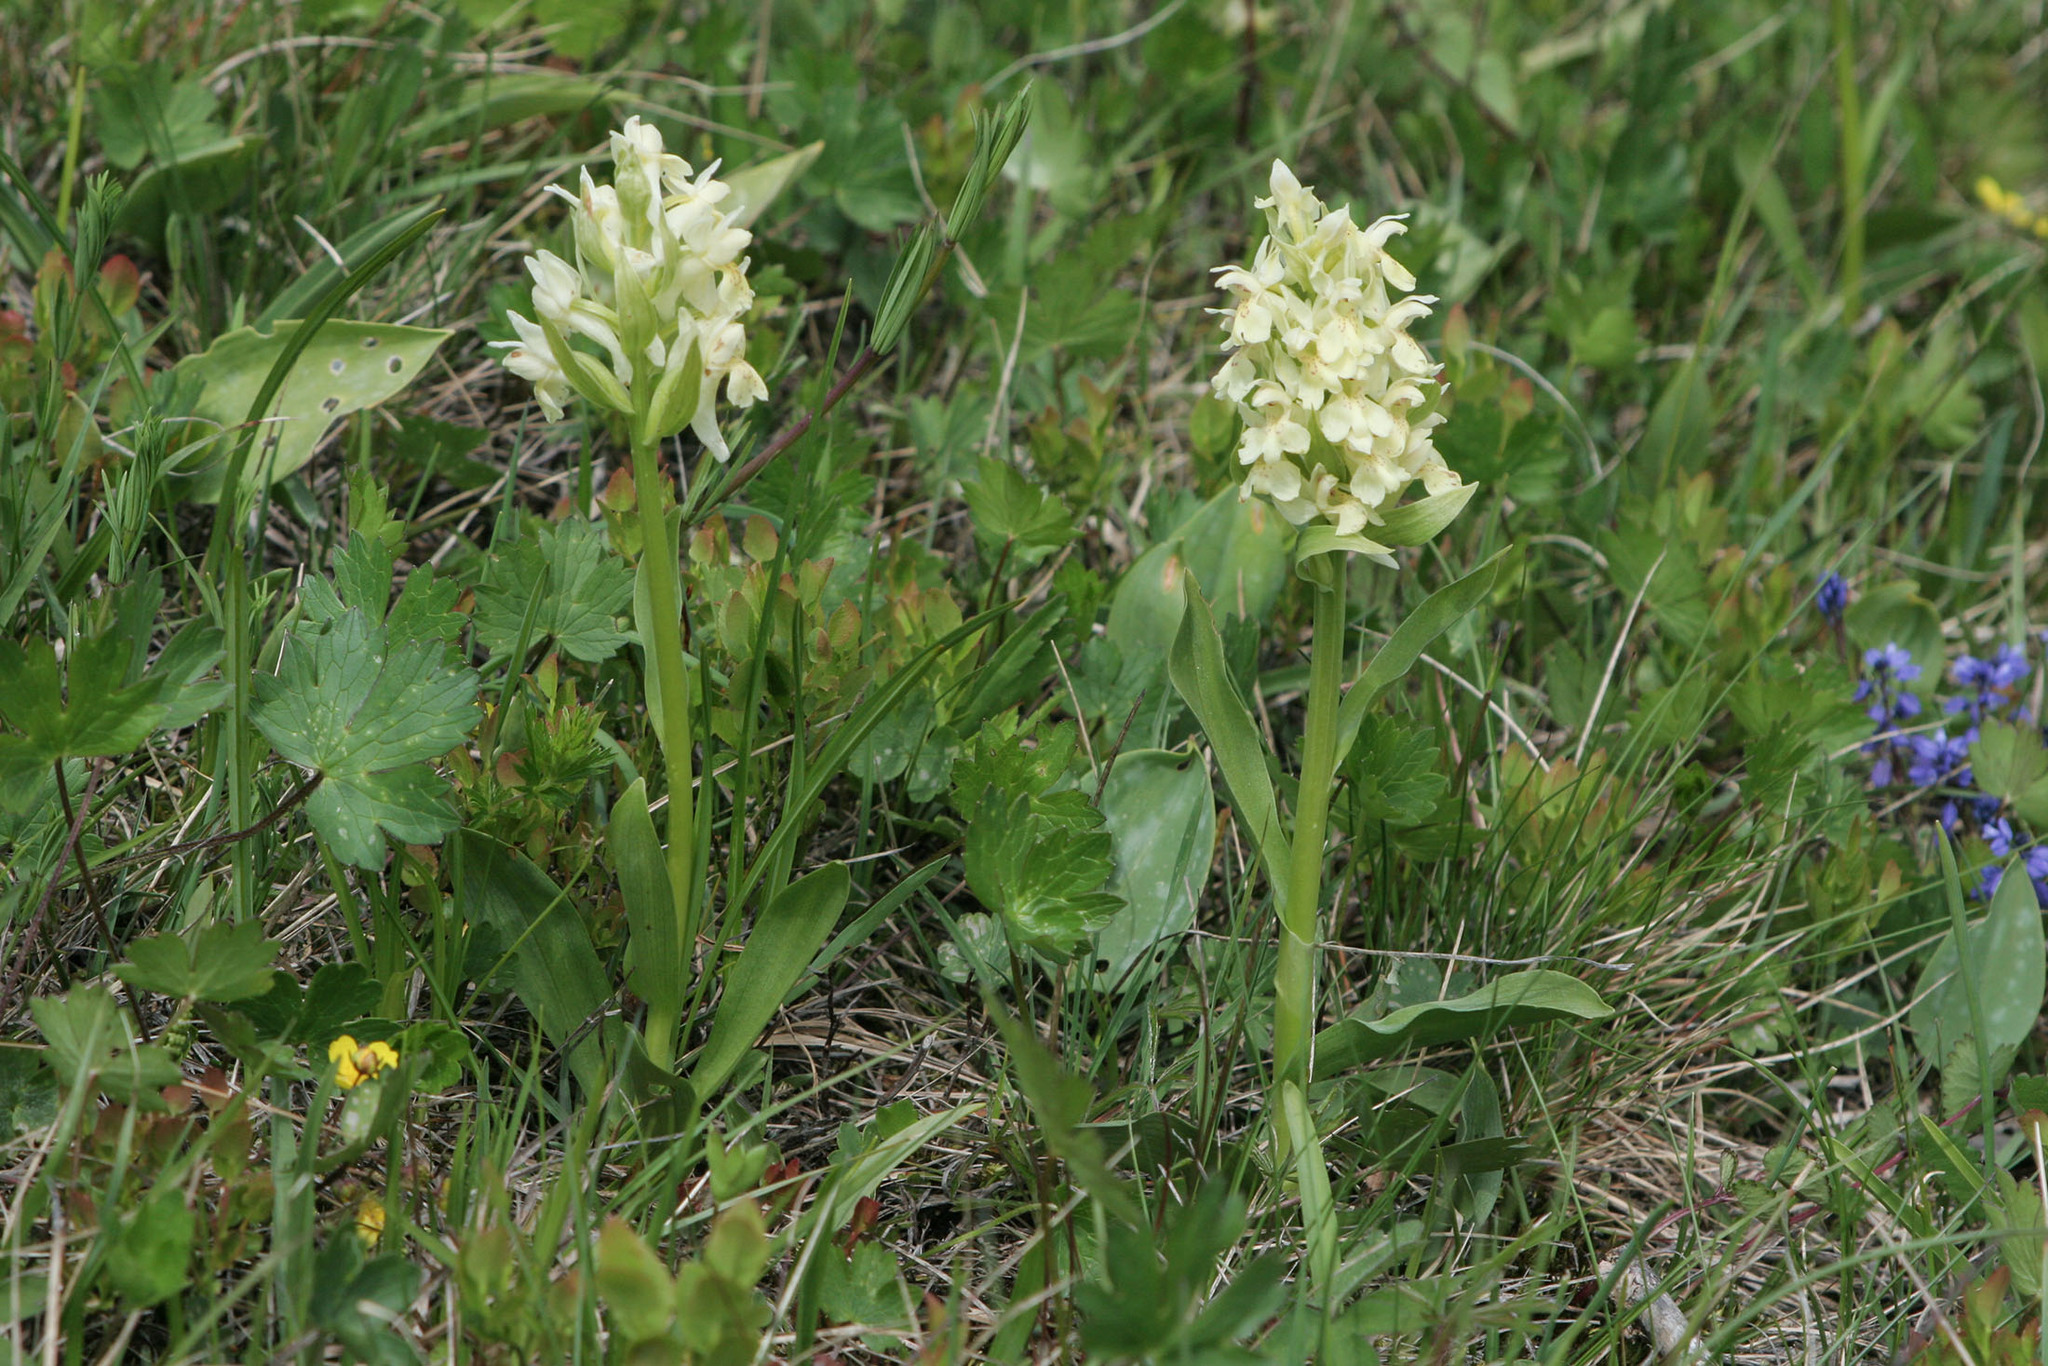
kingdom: Plantae
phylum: Tracheophyta
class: Liliopsida
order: Asparagales
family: Orchidaceae
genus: Dactylorhiza
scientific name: Dactylorhiza sambucina
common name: Elder-flowered orchid
